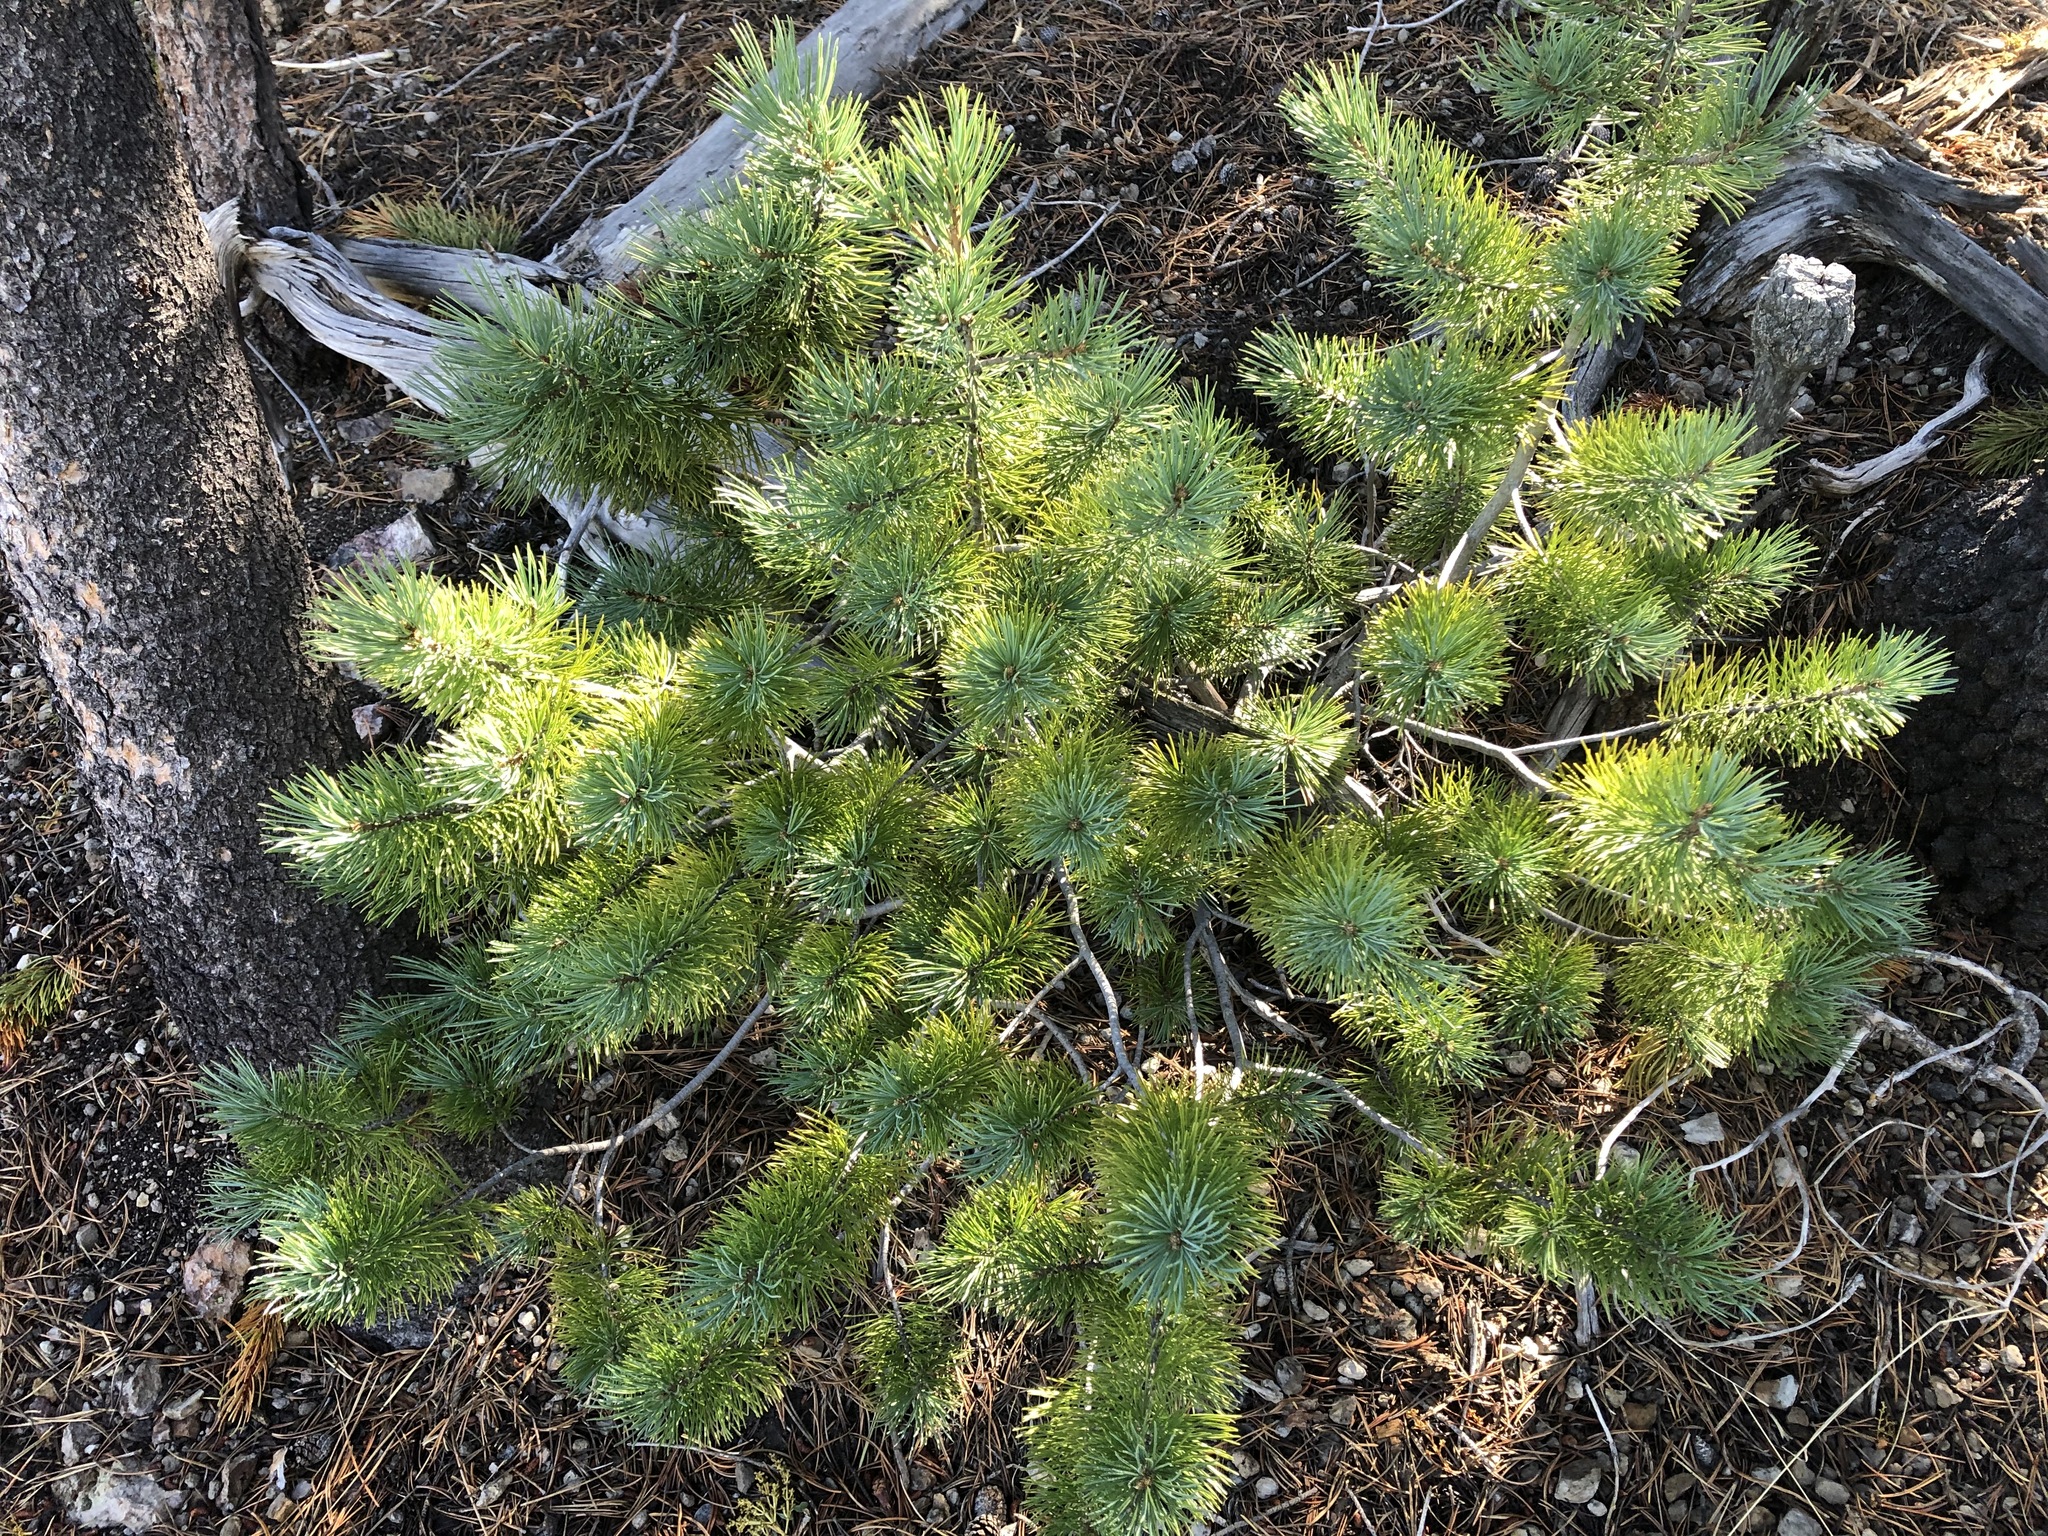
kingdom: Plantae
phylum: Tracheophyta
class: Pinopsida
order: Pinales
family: Pinaceae
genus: Pinus
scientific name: Pinus monticola
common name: Western white pine
